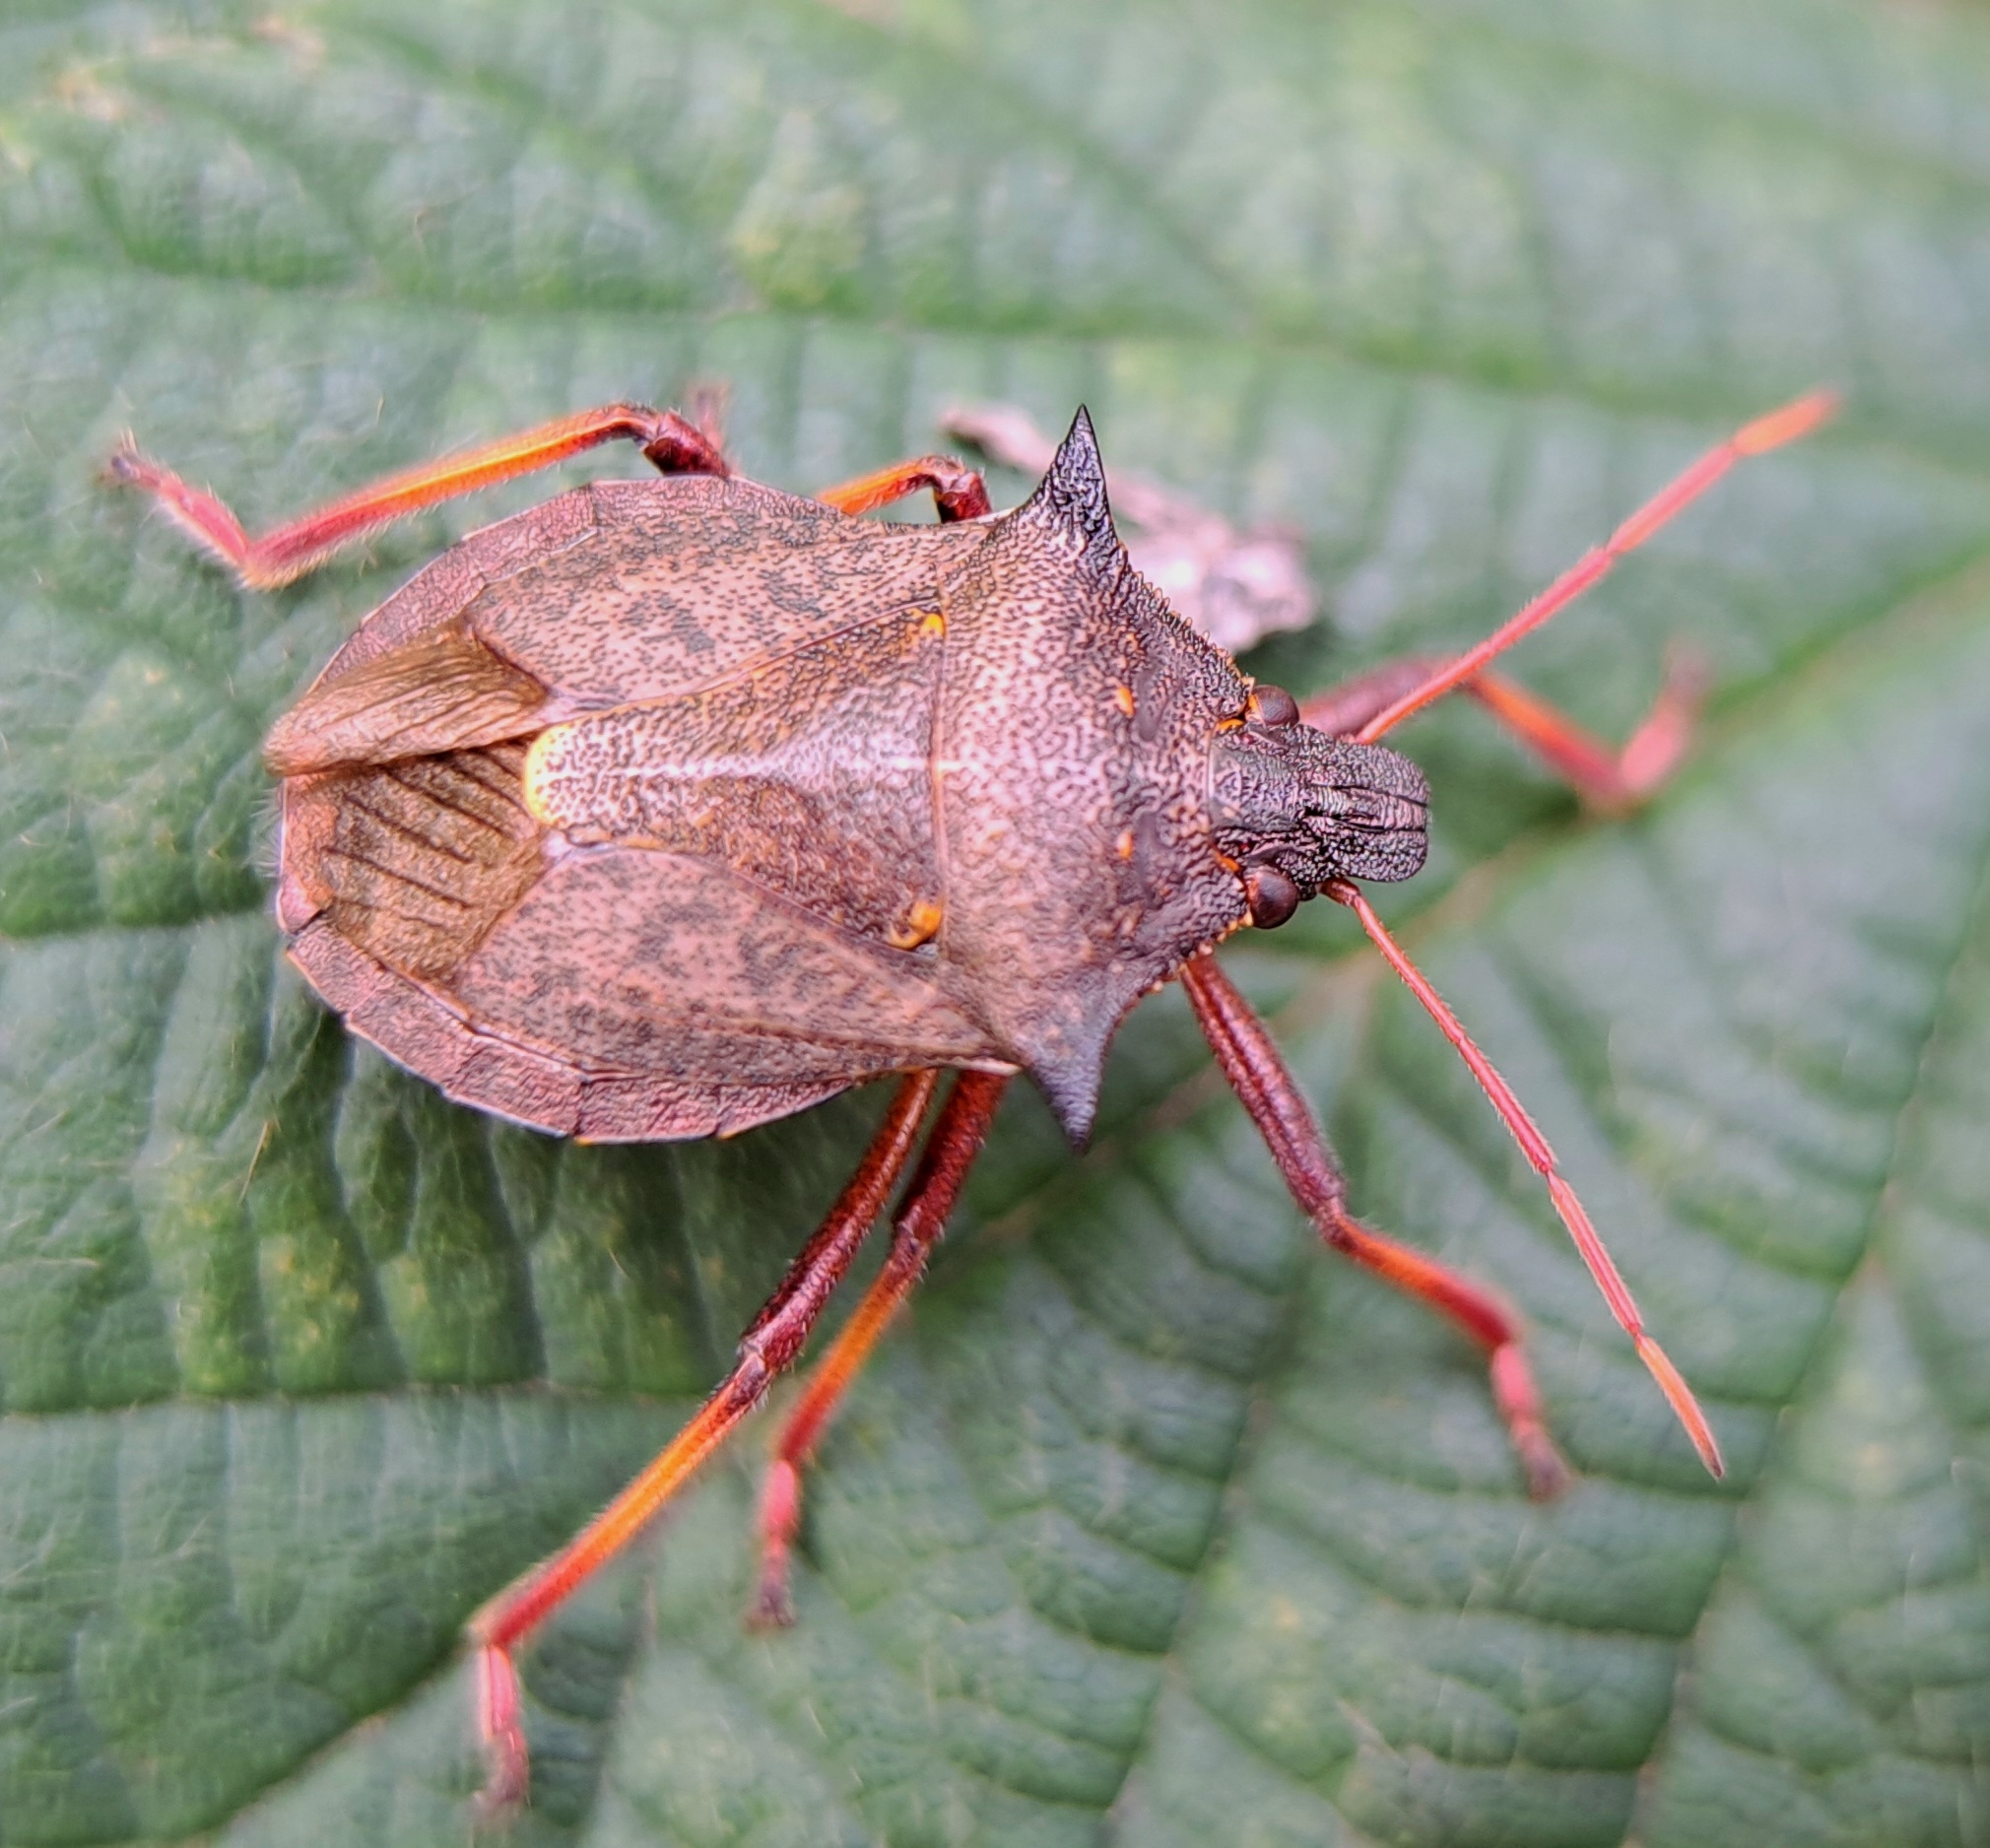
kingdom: Animalia
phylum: Arthropoda
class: Insecta
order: Hemiptera
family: Pentatomidae
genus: Picromerus
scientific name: Picromerus bidens
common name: Spiked shieldbug
